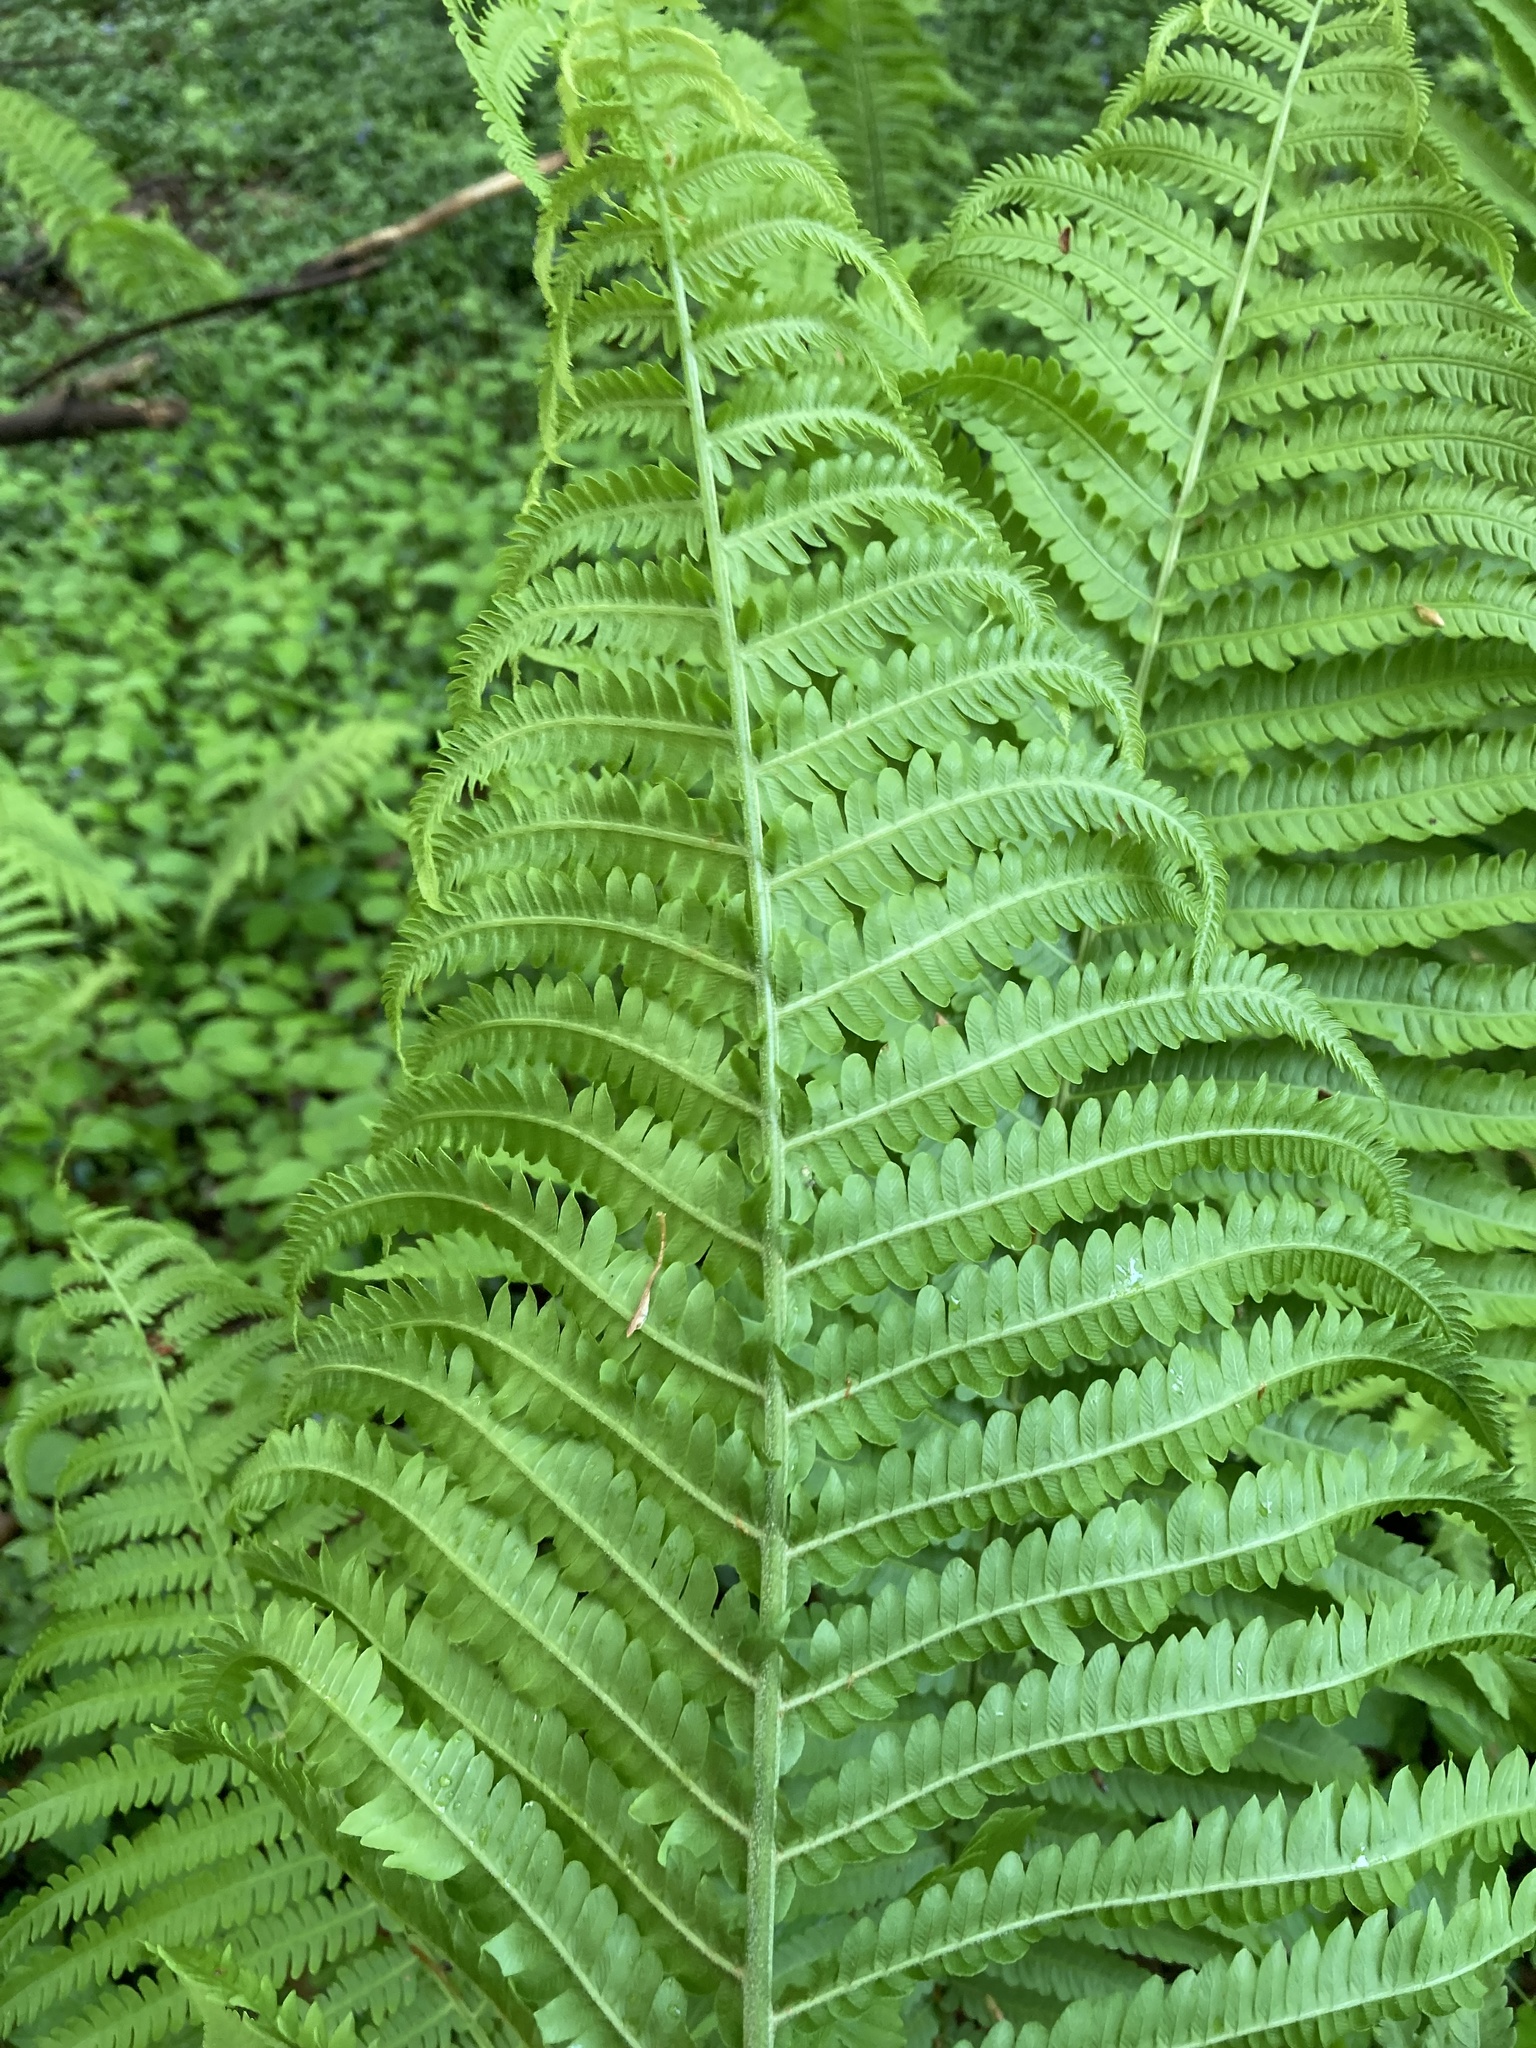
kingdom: Plantae
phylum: Tracheophyta
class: Polypodiopsida
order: Polypodiales
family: Onocleaceae
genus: Matteuccia
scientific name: Matteuccia struthiopteris
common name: Ostrich fern
